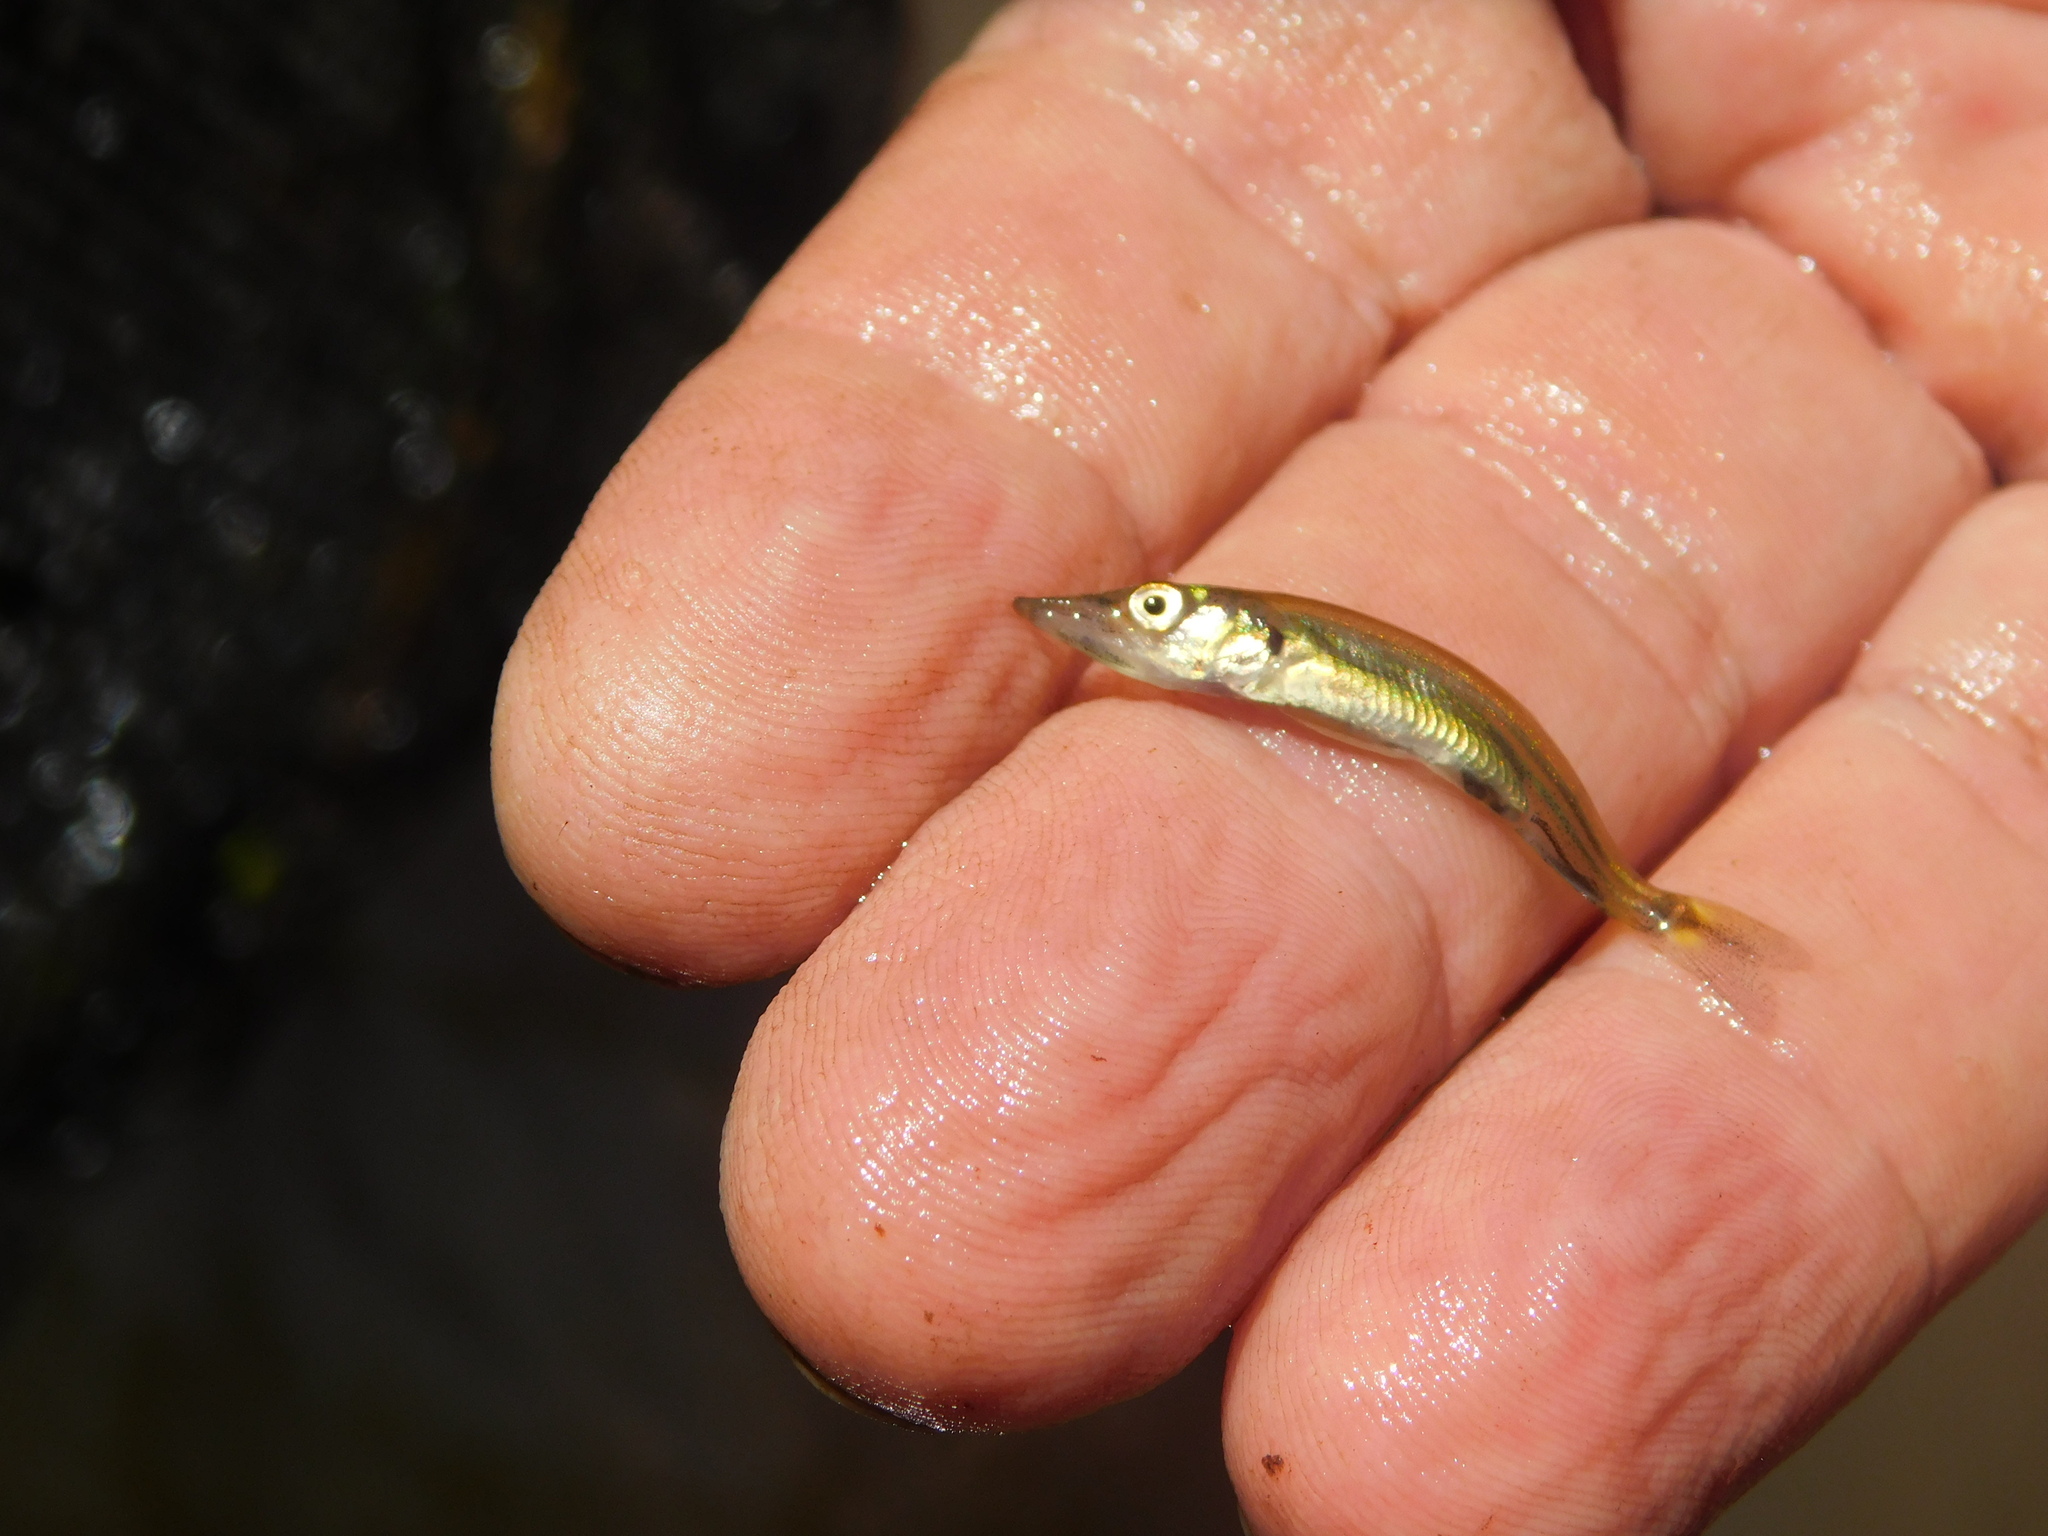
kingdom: Animalia
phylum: Chordata
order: Characiformes
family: Acestrorhynchidae
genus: Acestrorhynchus
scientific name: Acestrorhynchus pantaneiro
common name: Pike characin
